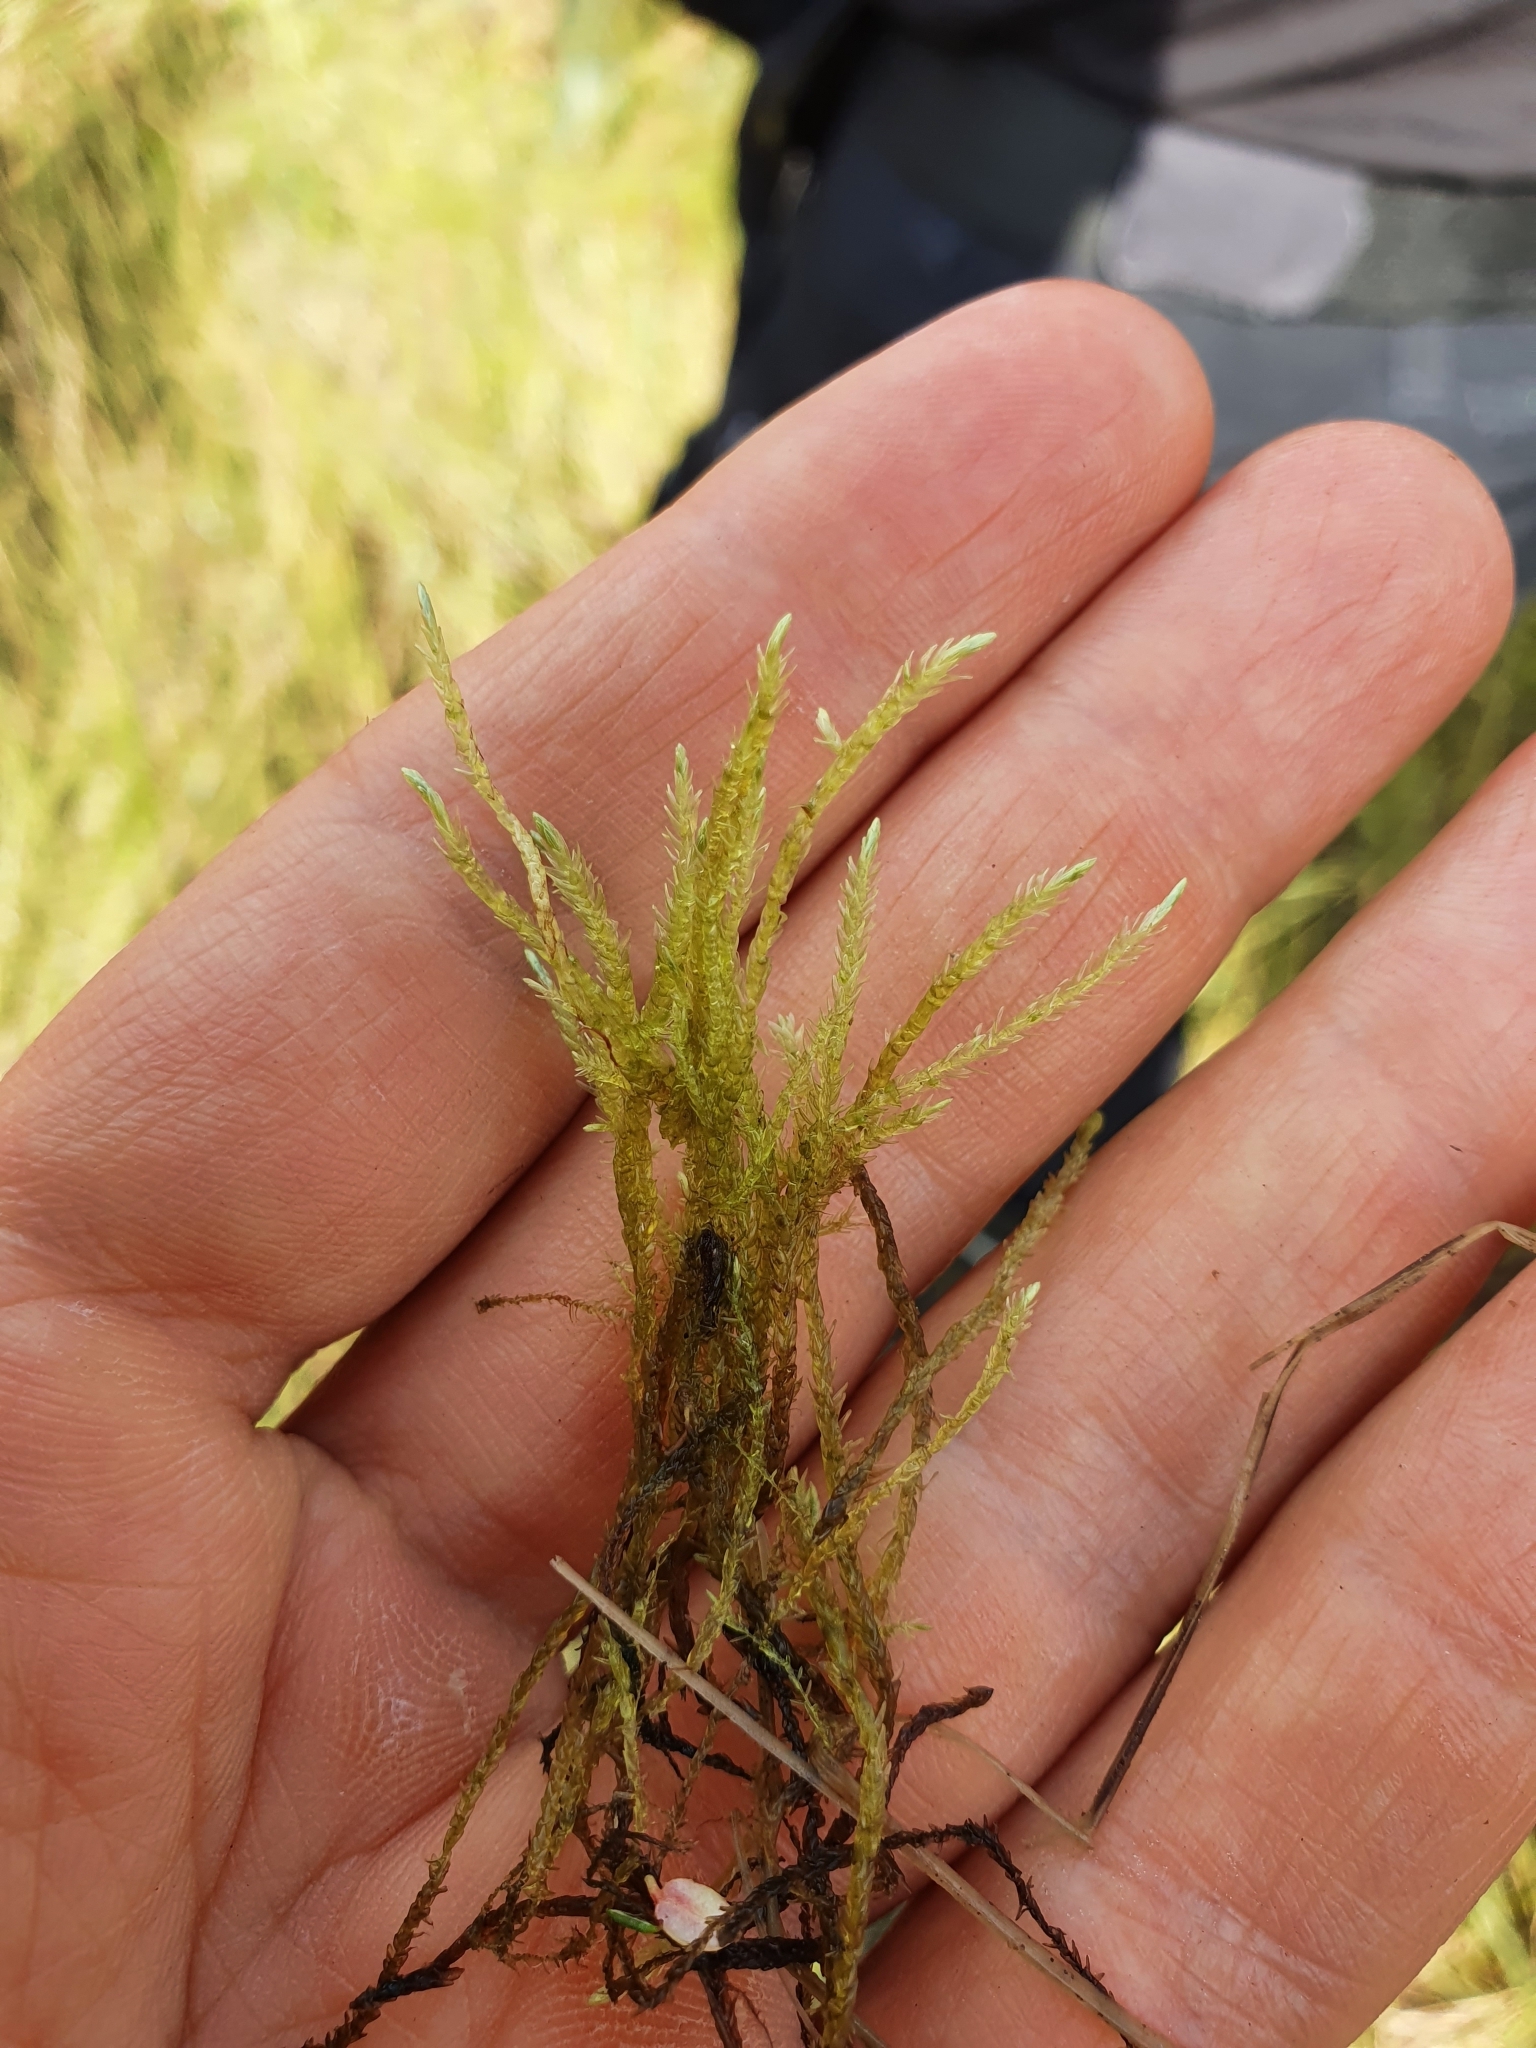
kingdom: Plantae
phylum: Bryophyta
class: Bryopsida
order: Hypnales
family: Calliergonaceae
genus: Straminergon
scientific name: Straminergon stramineum
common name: Straw moss
